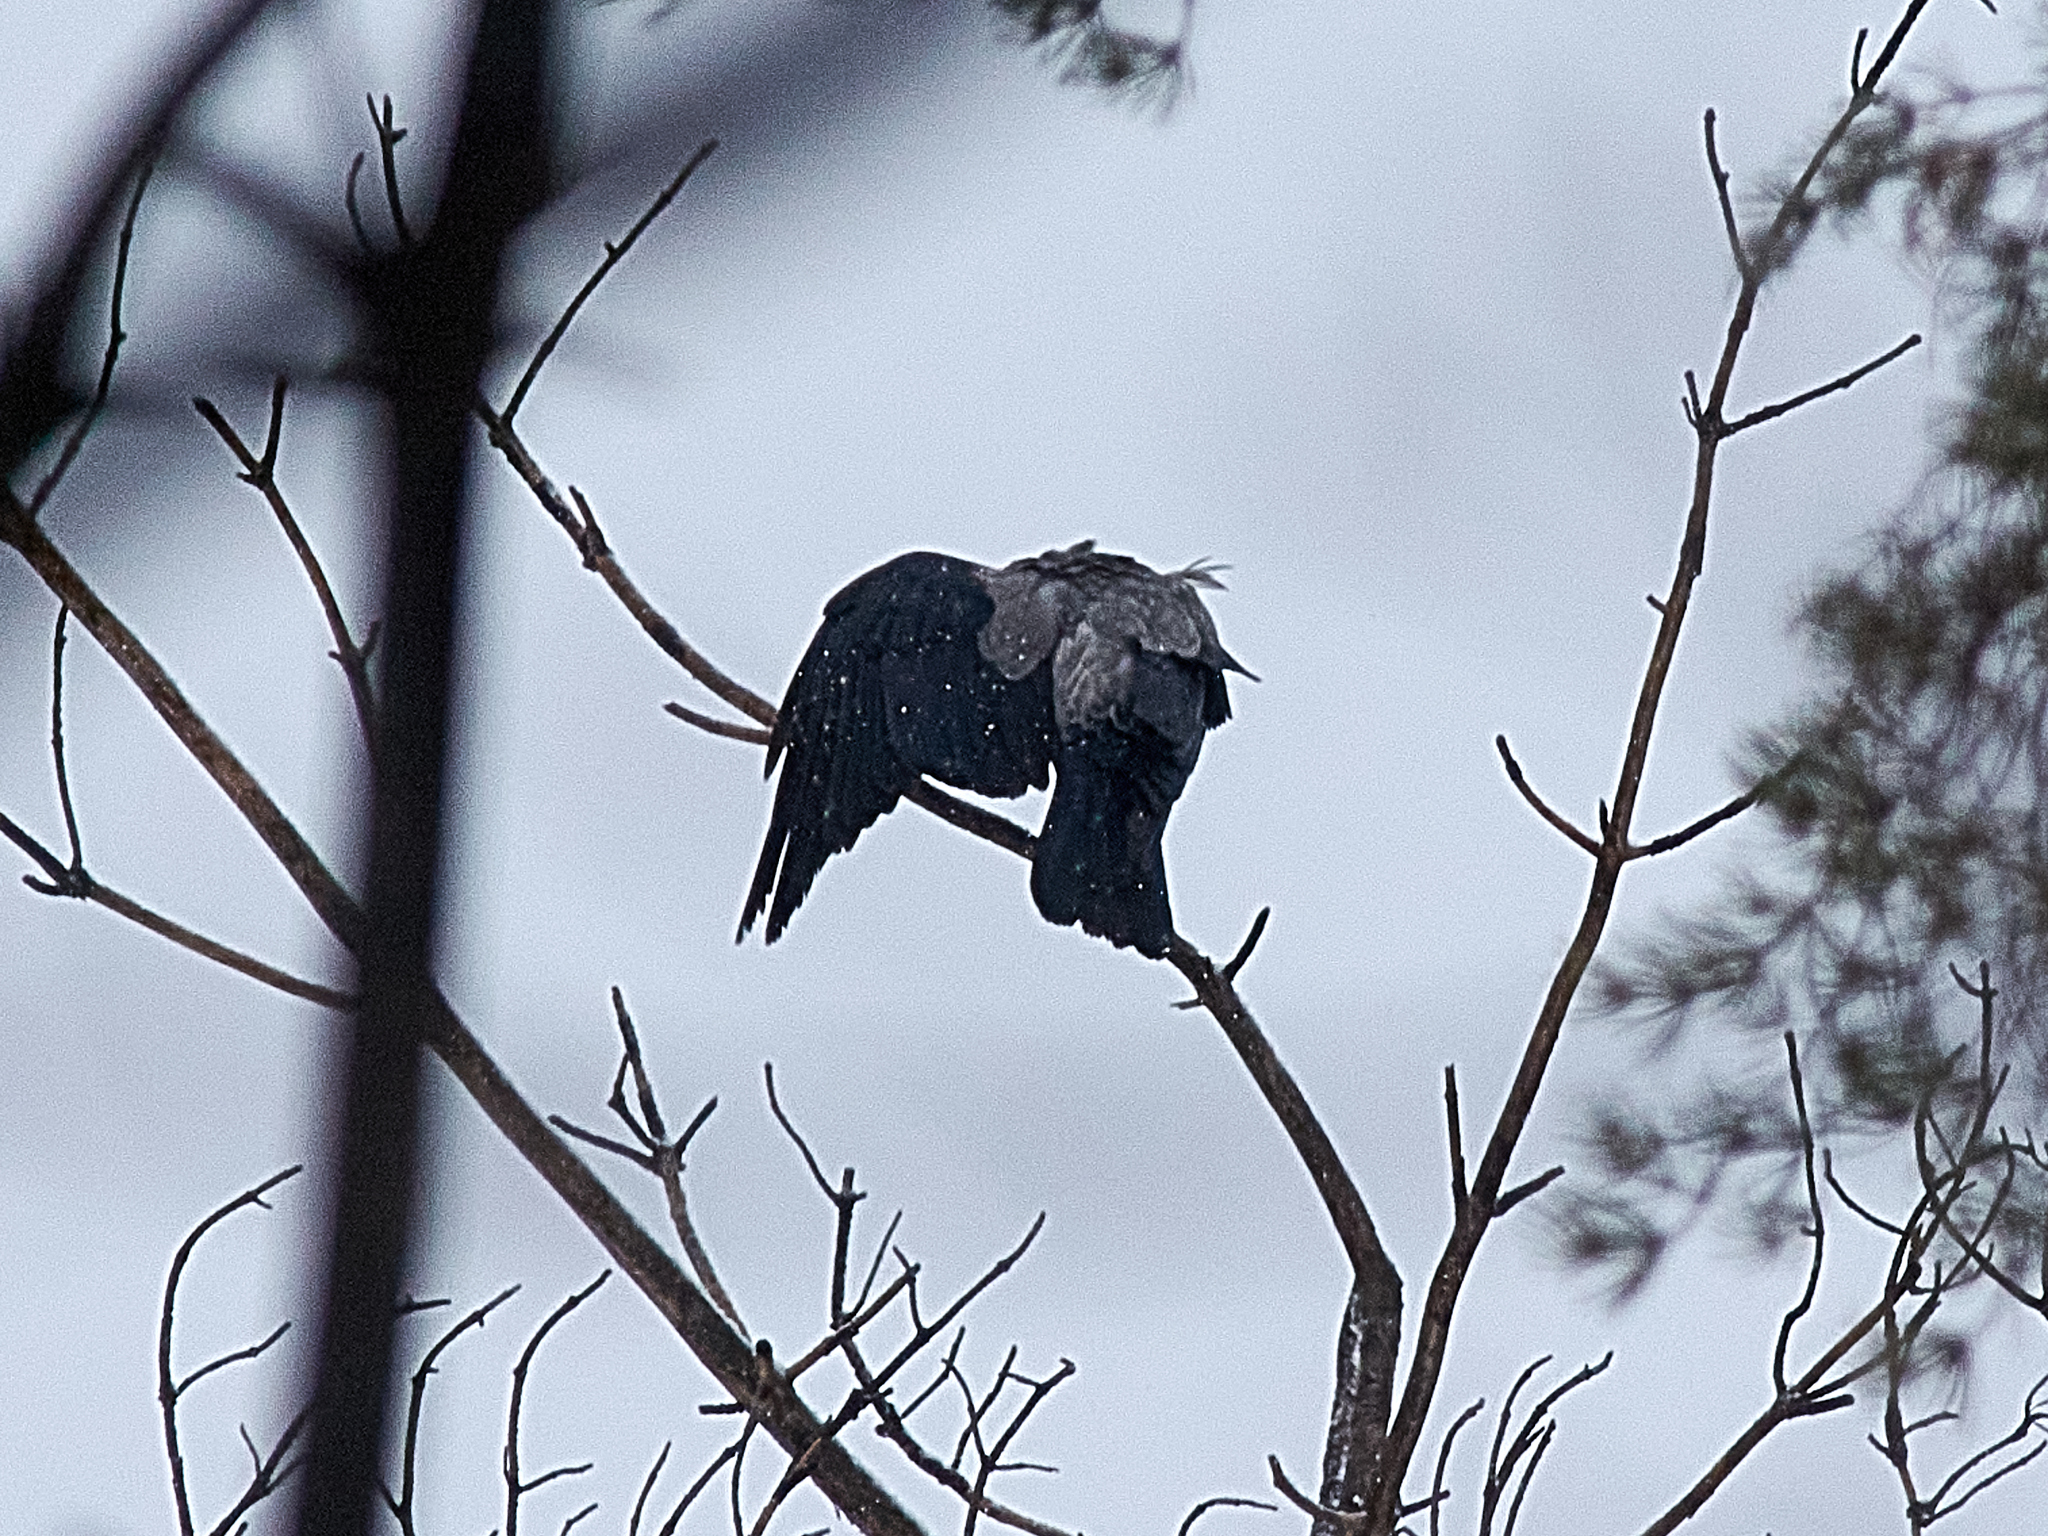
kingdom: Animalia
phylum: Chordata
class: Aves
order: Passeriformes
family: Corvidae
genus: Corvus
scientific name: Corvus cornix
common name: Hooded crow
